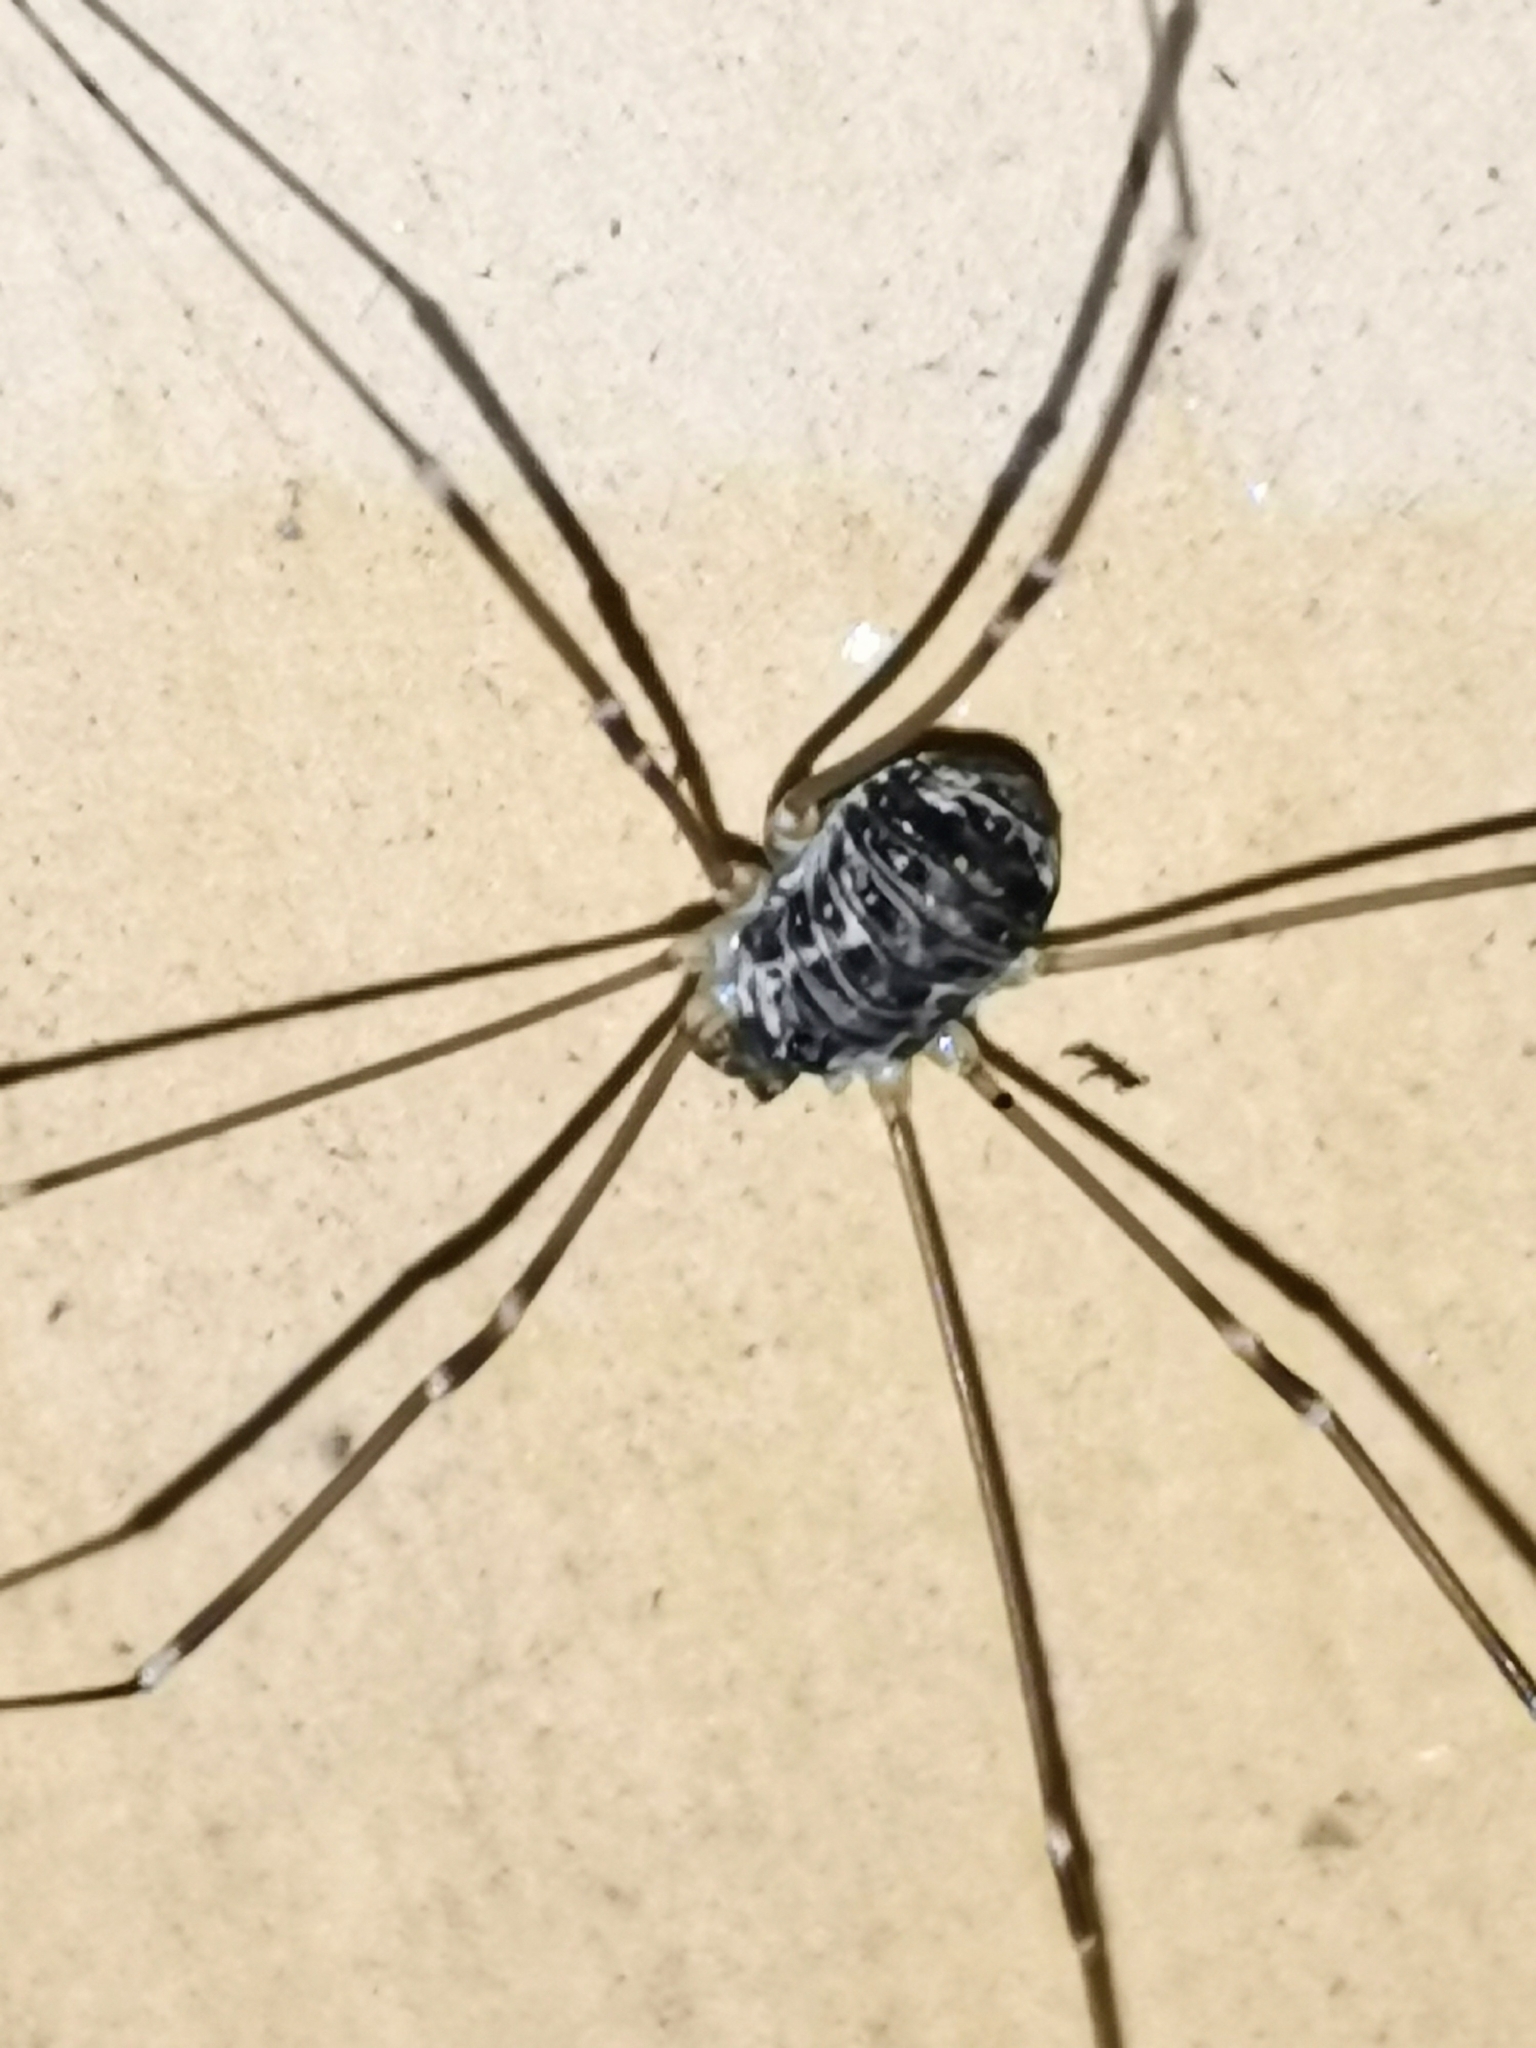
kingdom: Animalia
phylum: Arthropoda
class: Arachnida
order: Opiliones
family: Sclerosomatidae
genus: Leiobunum
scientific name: Leiobunum gracile
